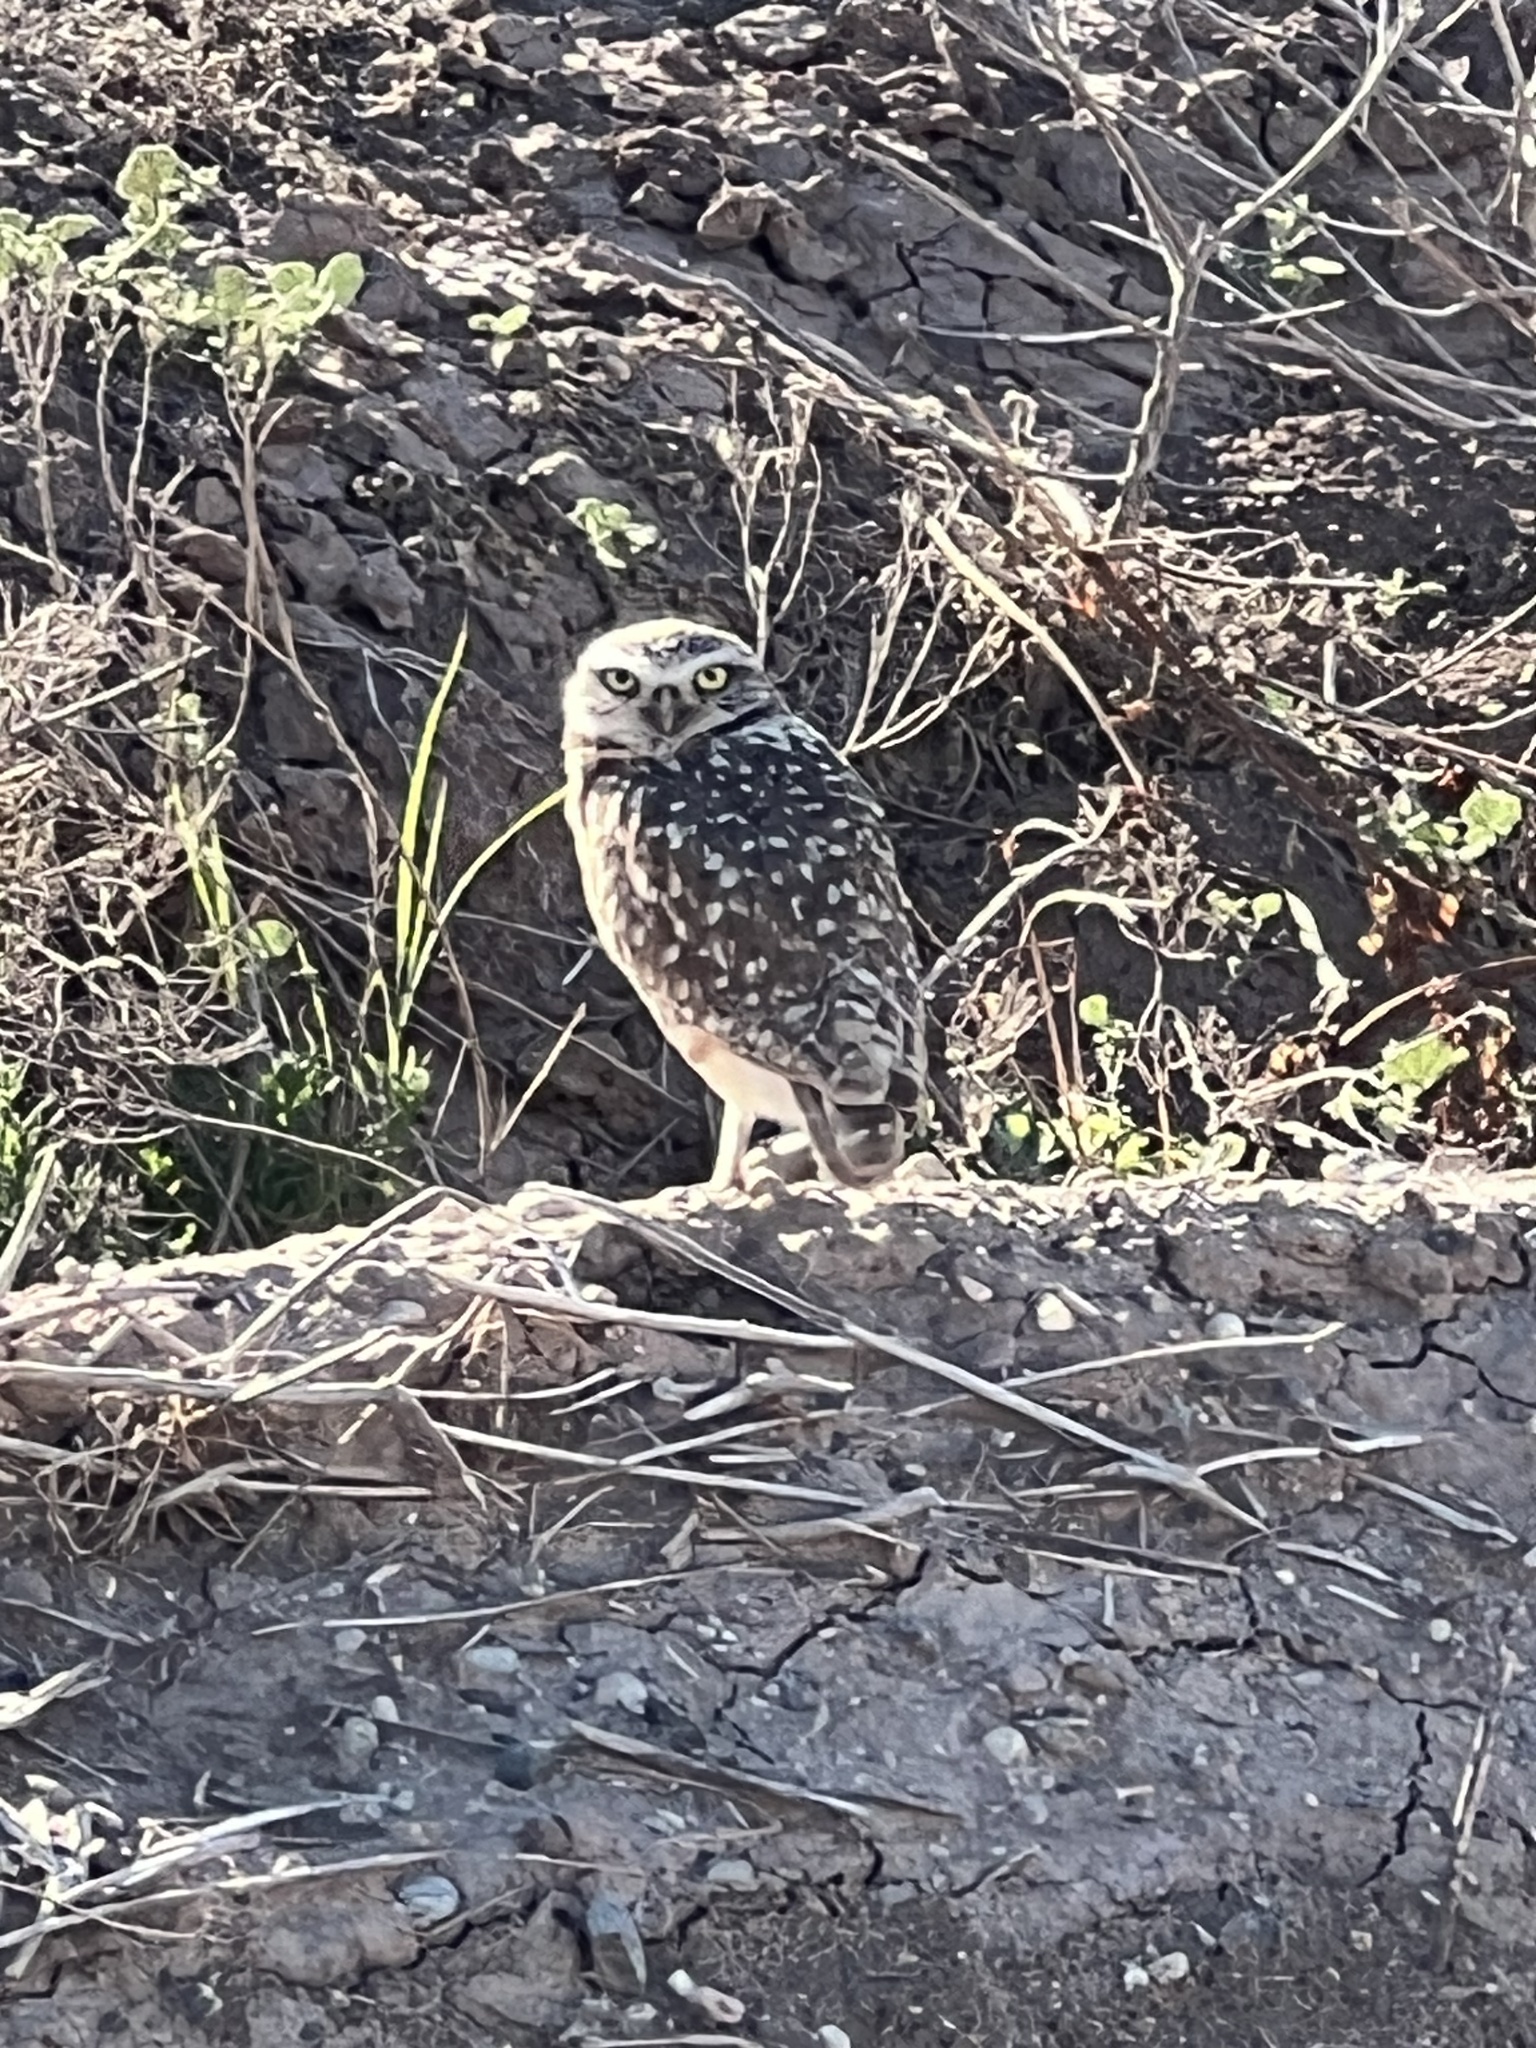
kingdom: Animalia
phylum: Chordata
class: Aves
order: Strigiformes
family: Strigidae
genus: Athene
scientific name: Athene cunicularia
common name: Burrowing owl
